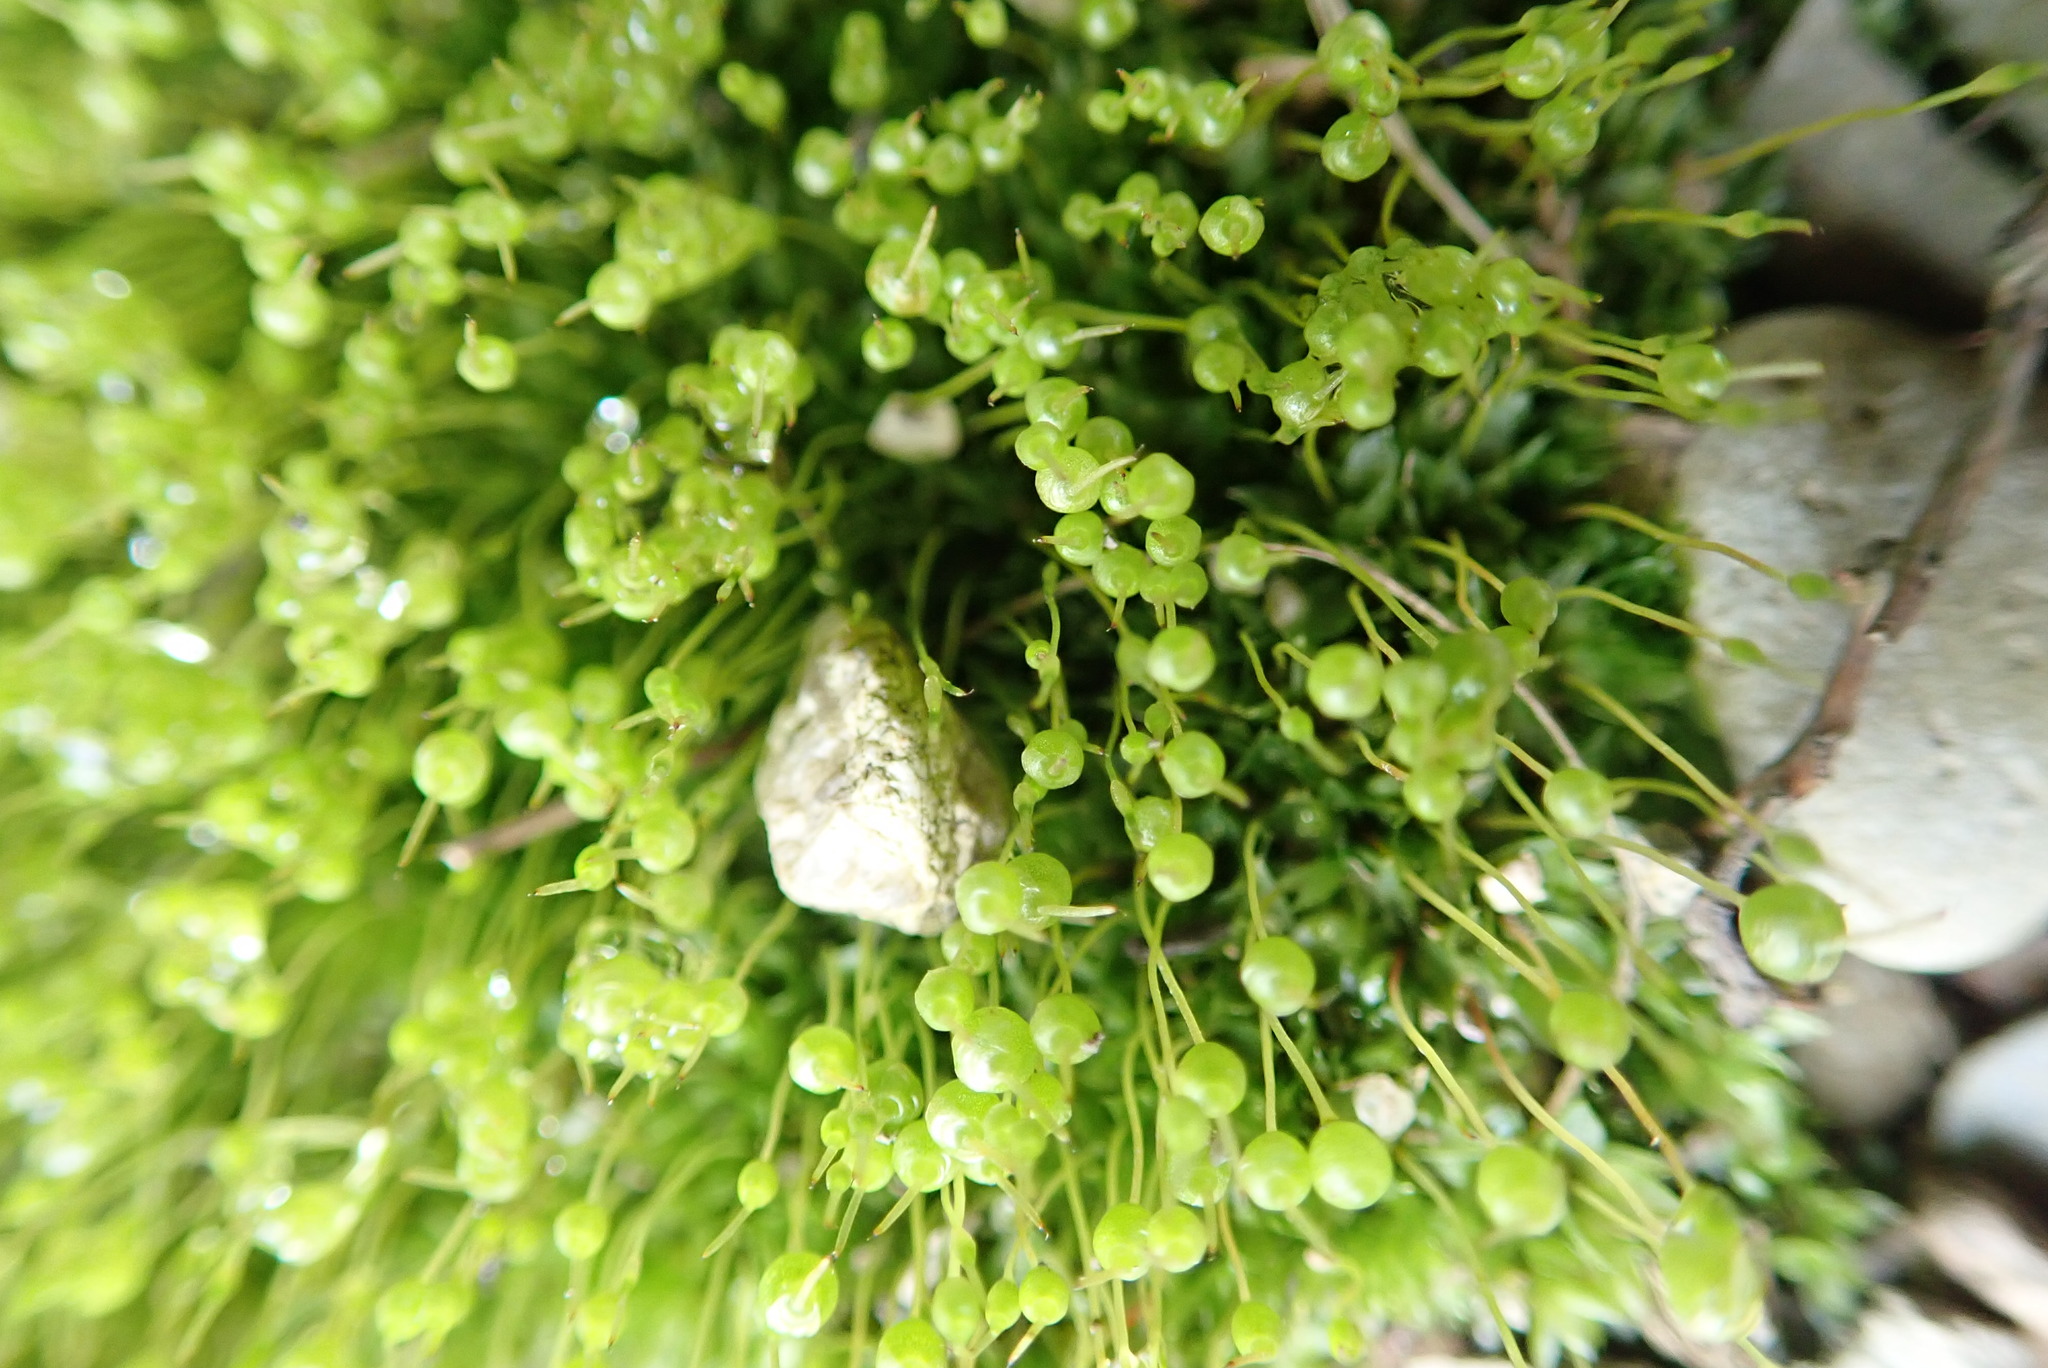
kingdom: Plantae
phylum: Bryophyta
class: Bryopsida
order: Funariales
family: Funariaceae
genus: Physcomitrium
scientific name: Physcomitrium pyriforme
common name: Common bladder-moss
